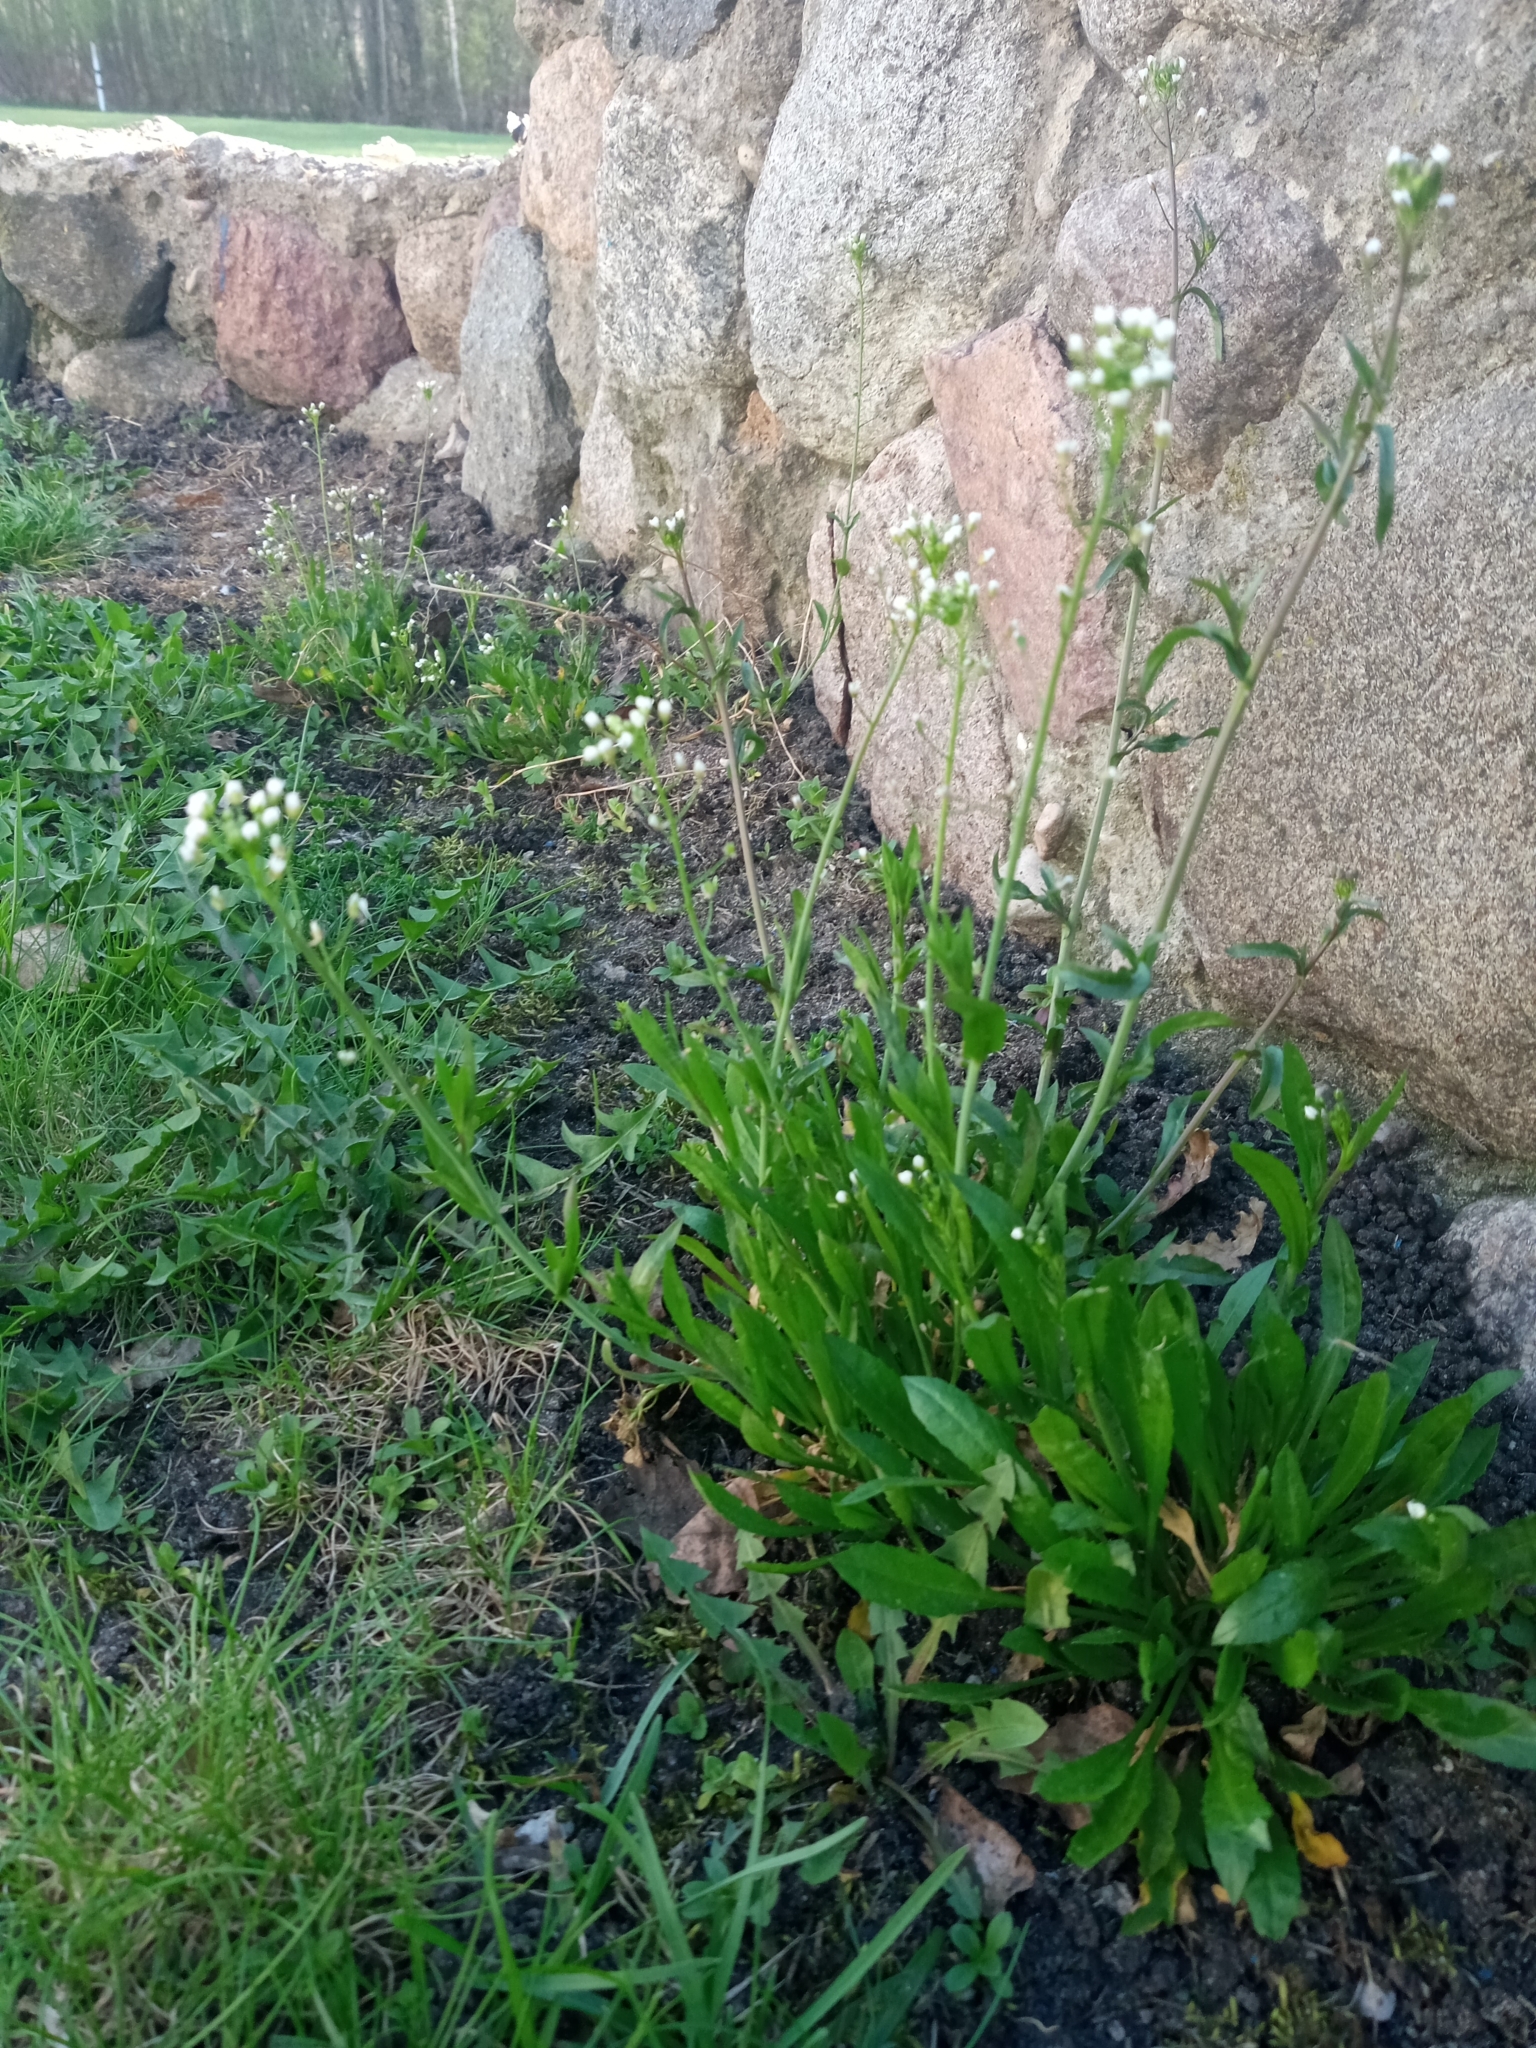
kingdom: Plantae
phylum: Tracheophyta
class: Magnoliopsida
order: Brassicales
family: Brassicaceae
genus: Capsella
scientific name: Capsella bursa-pastoris
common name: Shepherd's purse
